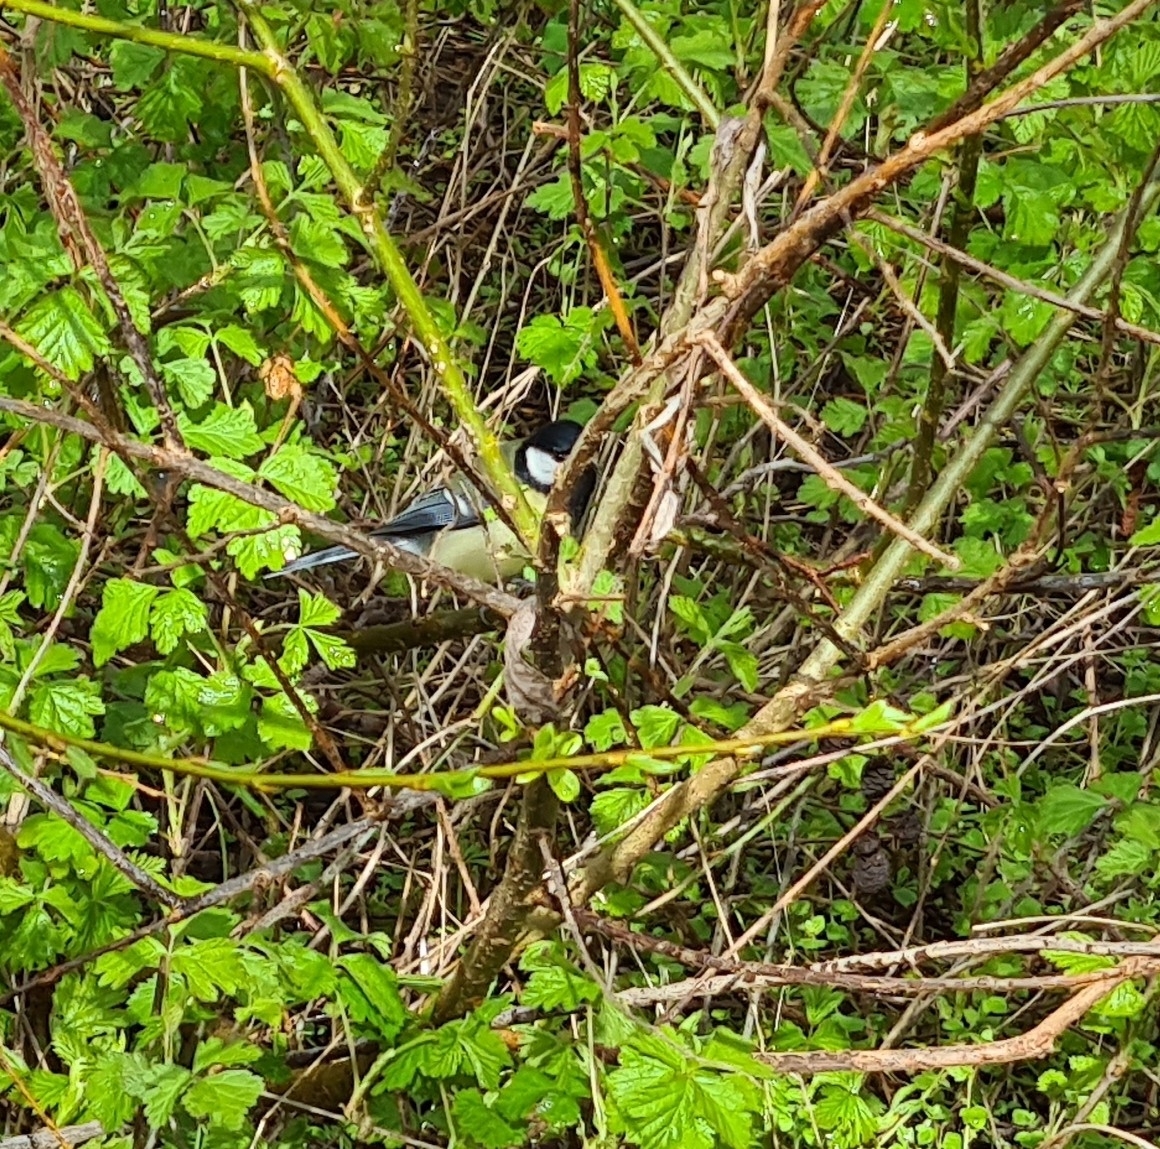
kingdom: Animalia
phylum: Chordata
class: Aves
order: Passeriformes
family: Paridae
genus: Parus
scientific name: Parus major
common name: Great tit
